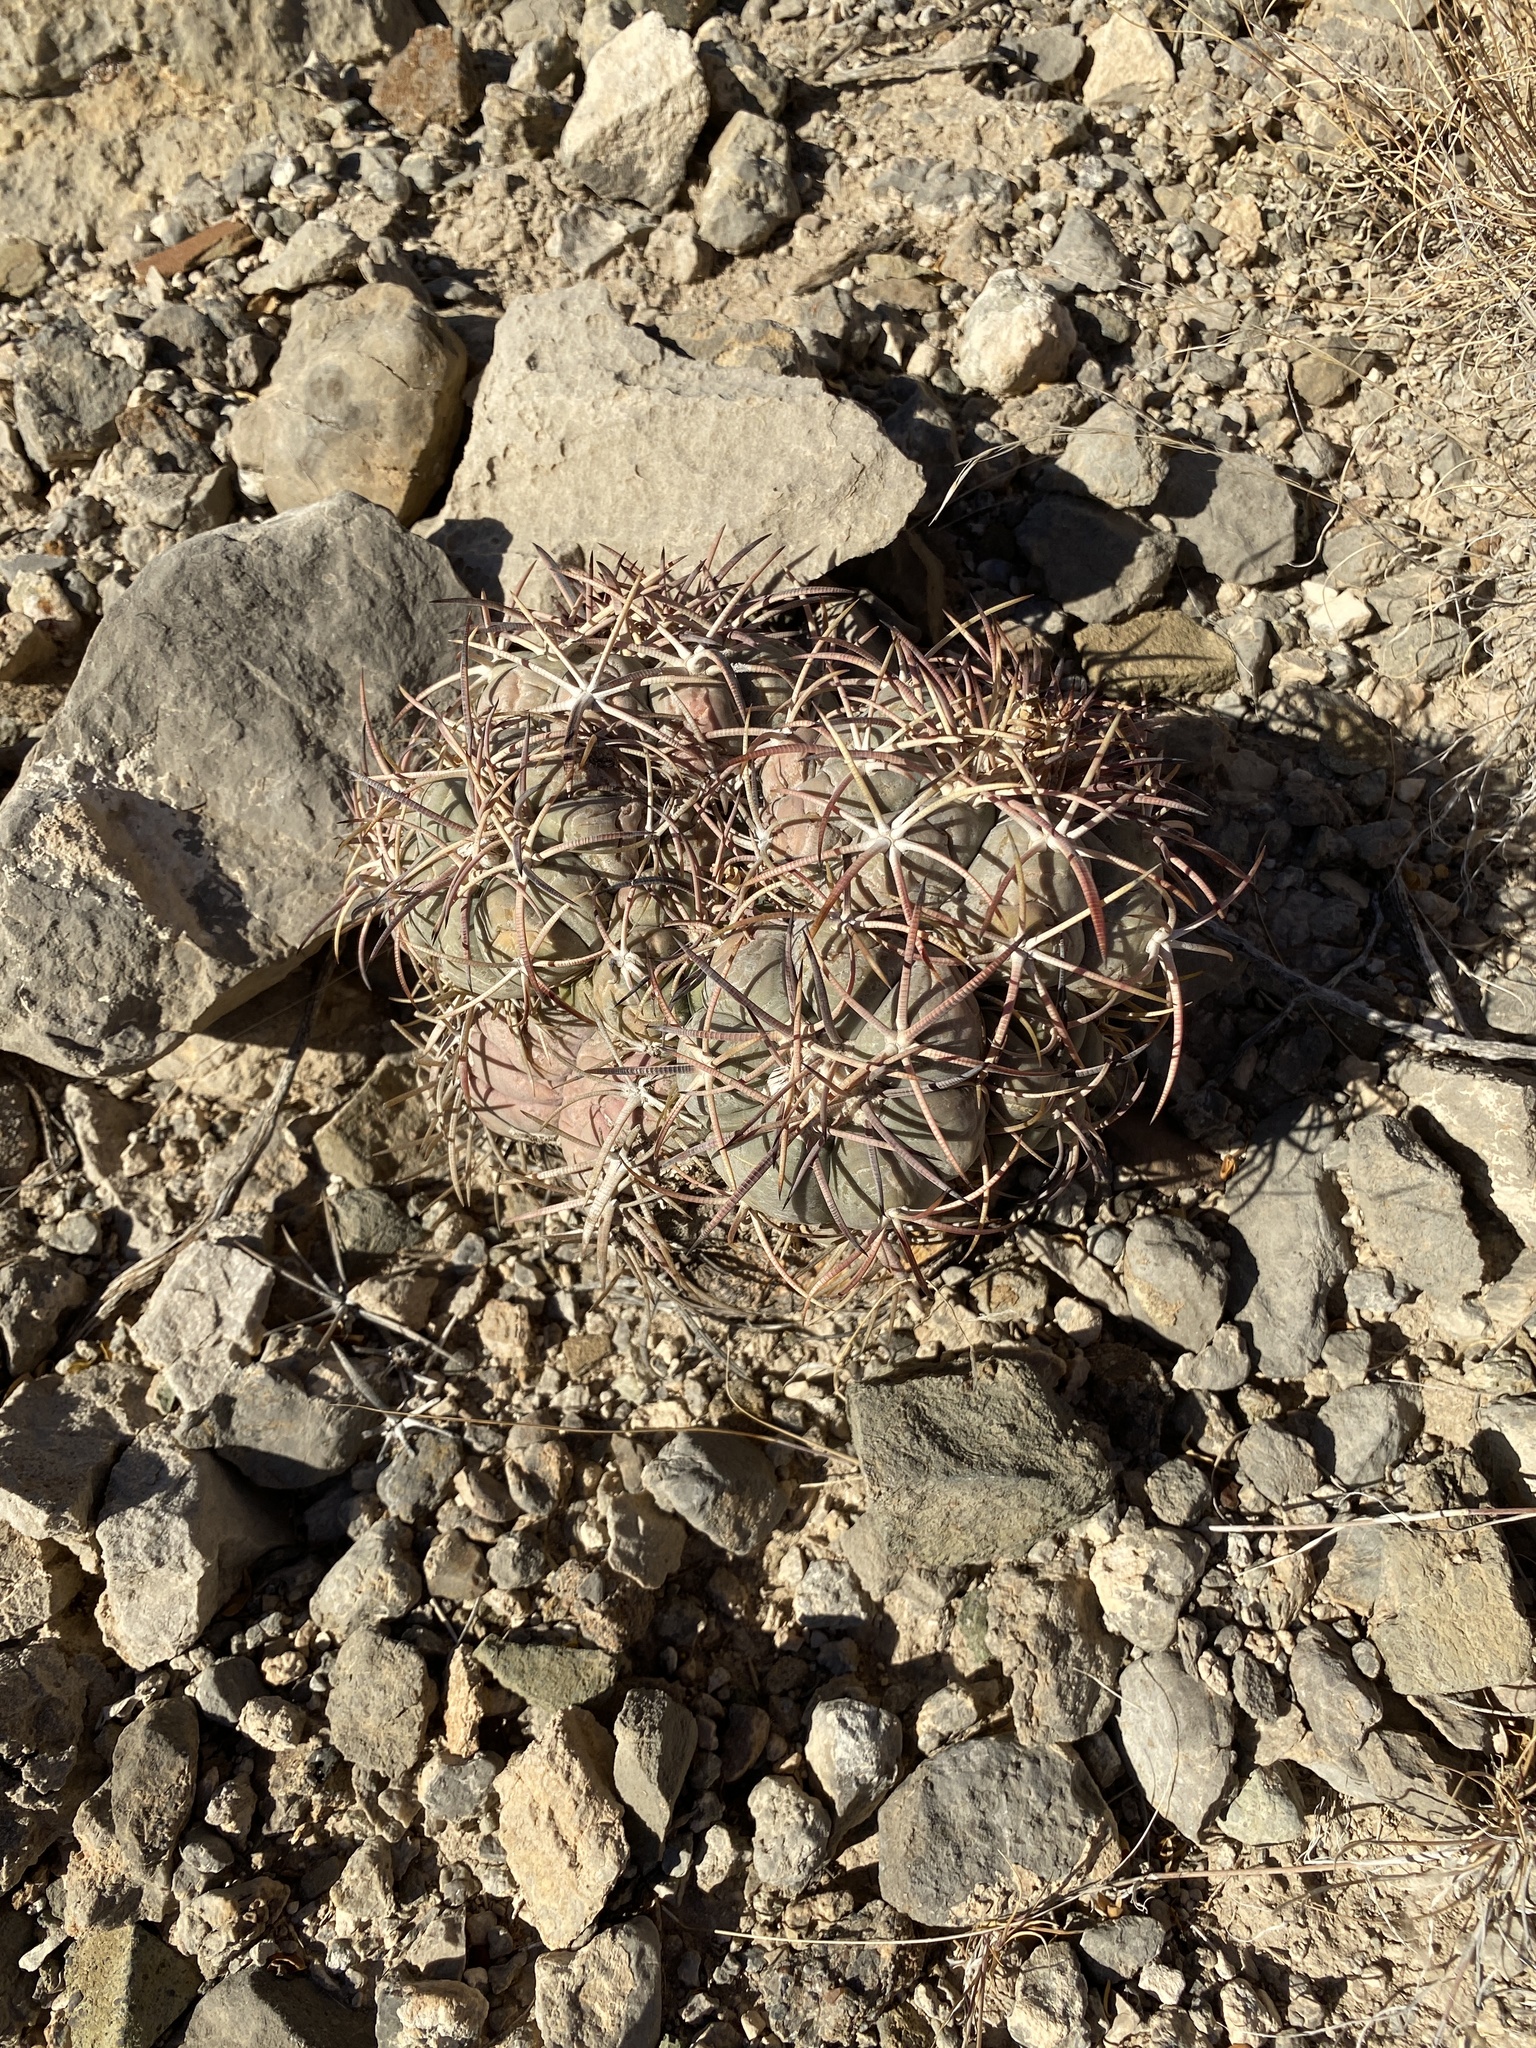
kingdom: Plantae
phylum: Tracheophyta
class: Magnoliopsida
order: Caryophyllales
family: Cactaceae
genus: Echinocactus
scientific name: Echinocactus horizonthalonius
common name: Devilshead
